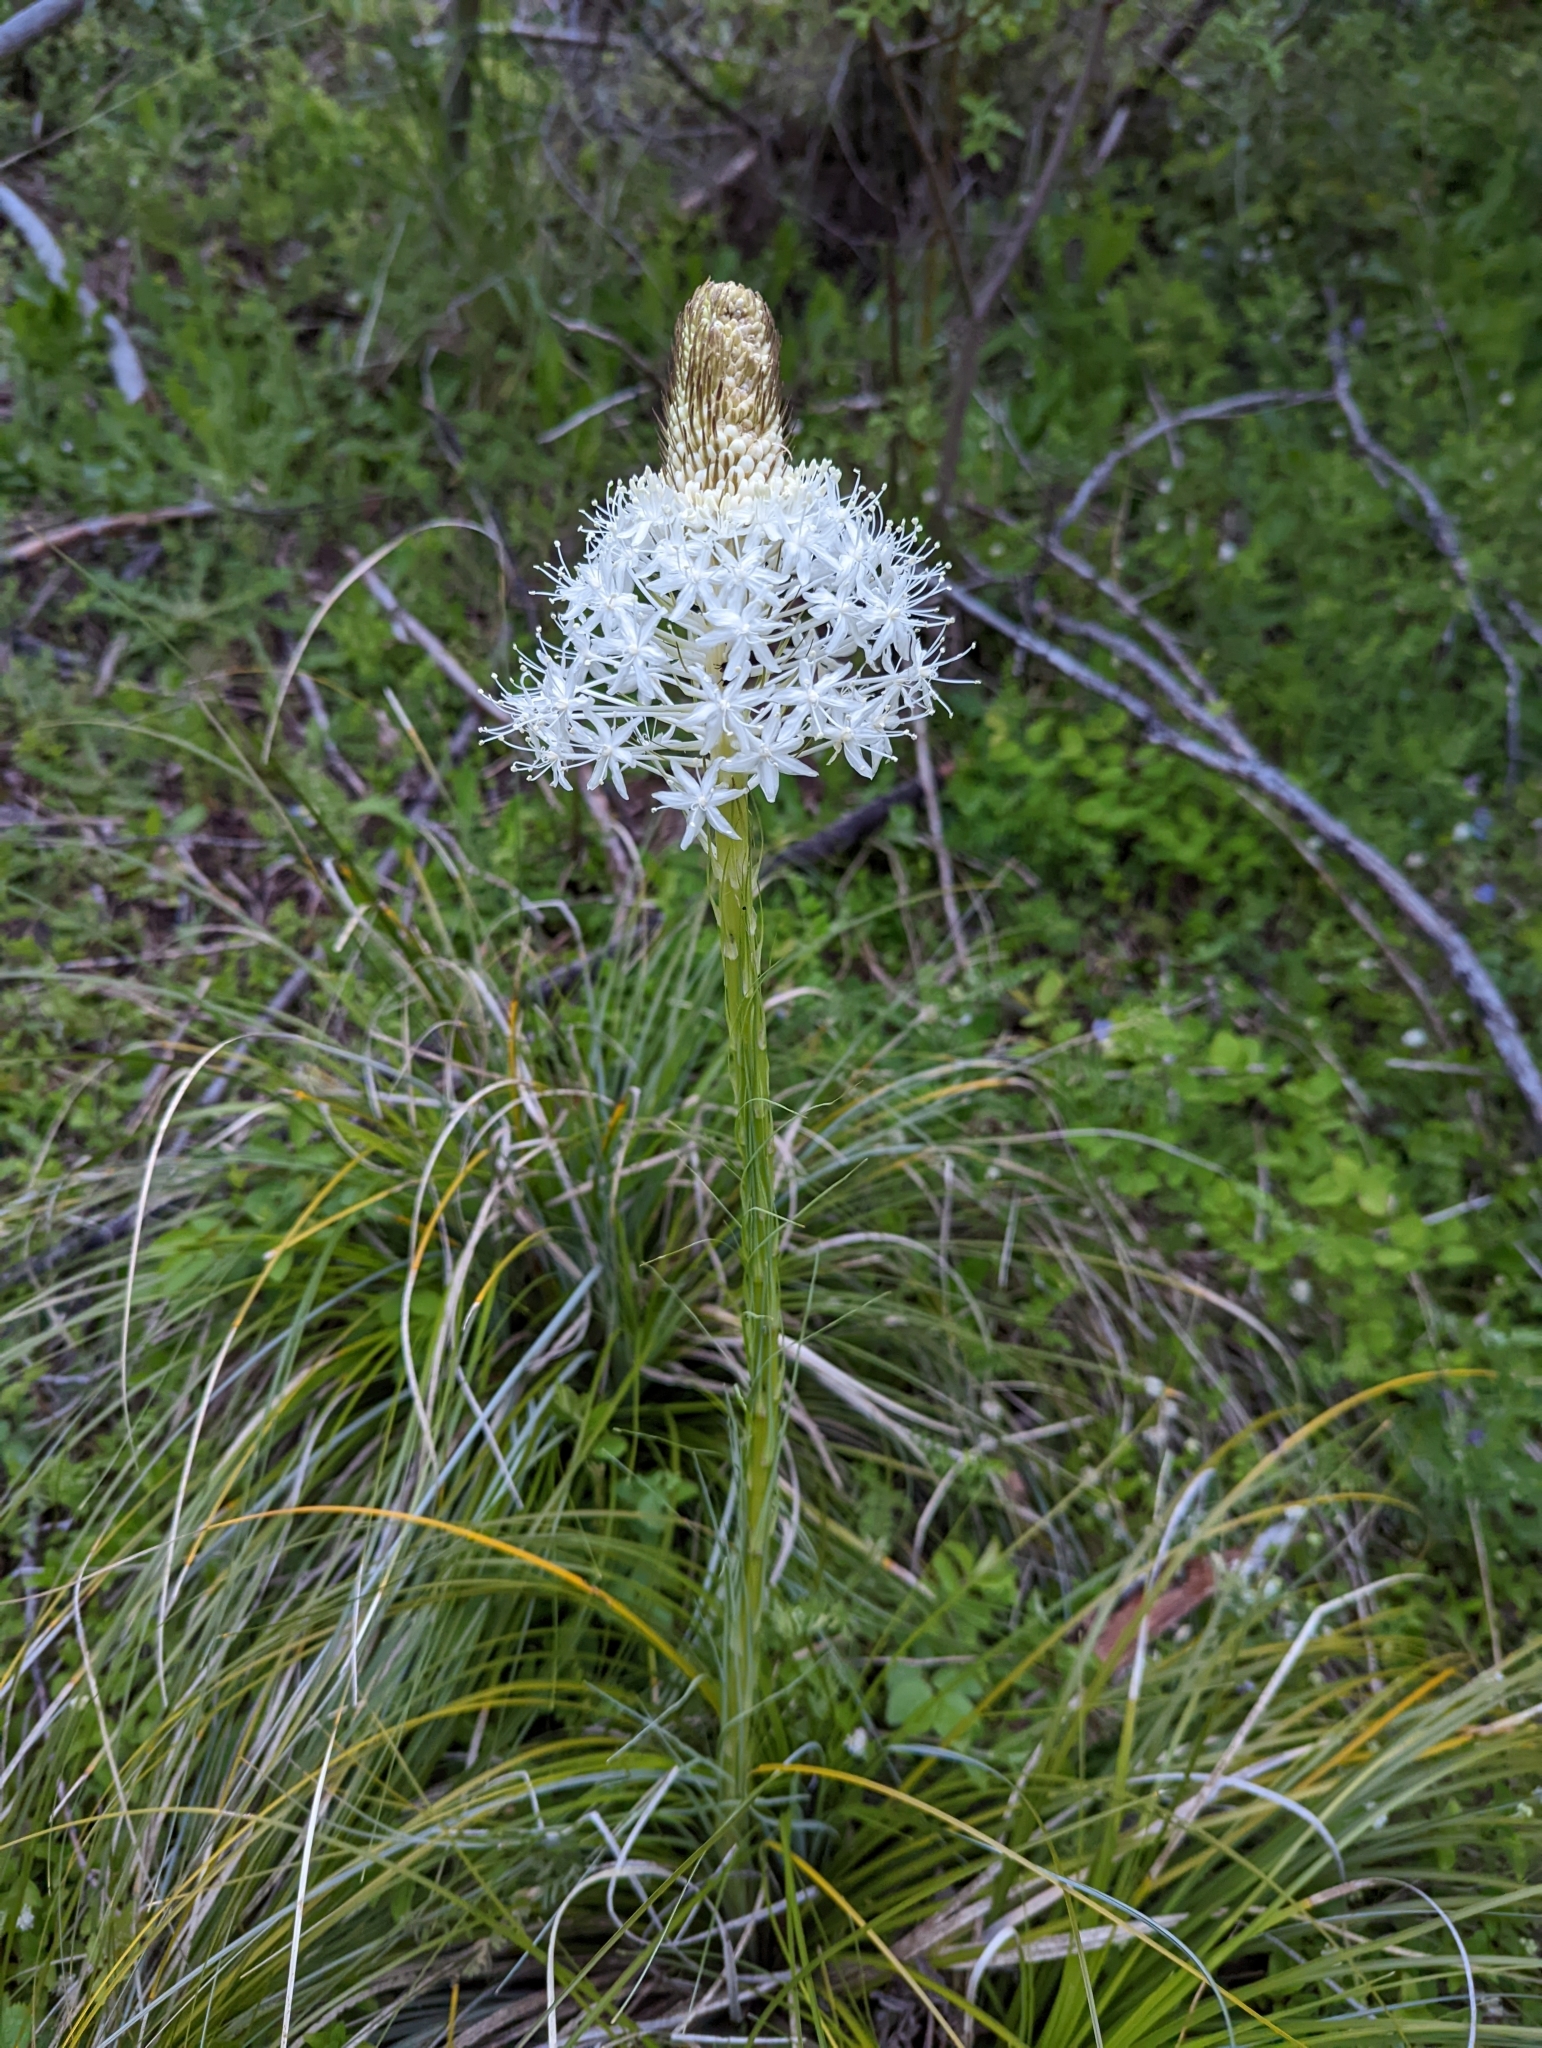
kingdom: Plantae
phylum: Tracheophyta
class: Liliopsida
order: Liliales
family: Melanthiaceae
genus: Xerophyllum
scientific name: Xerophyllum tenax
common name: Bear-grass
